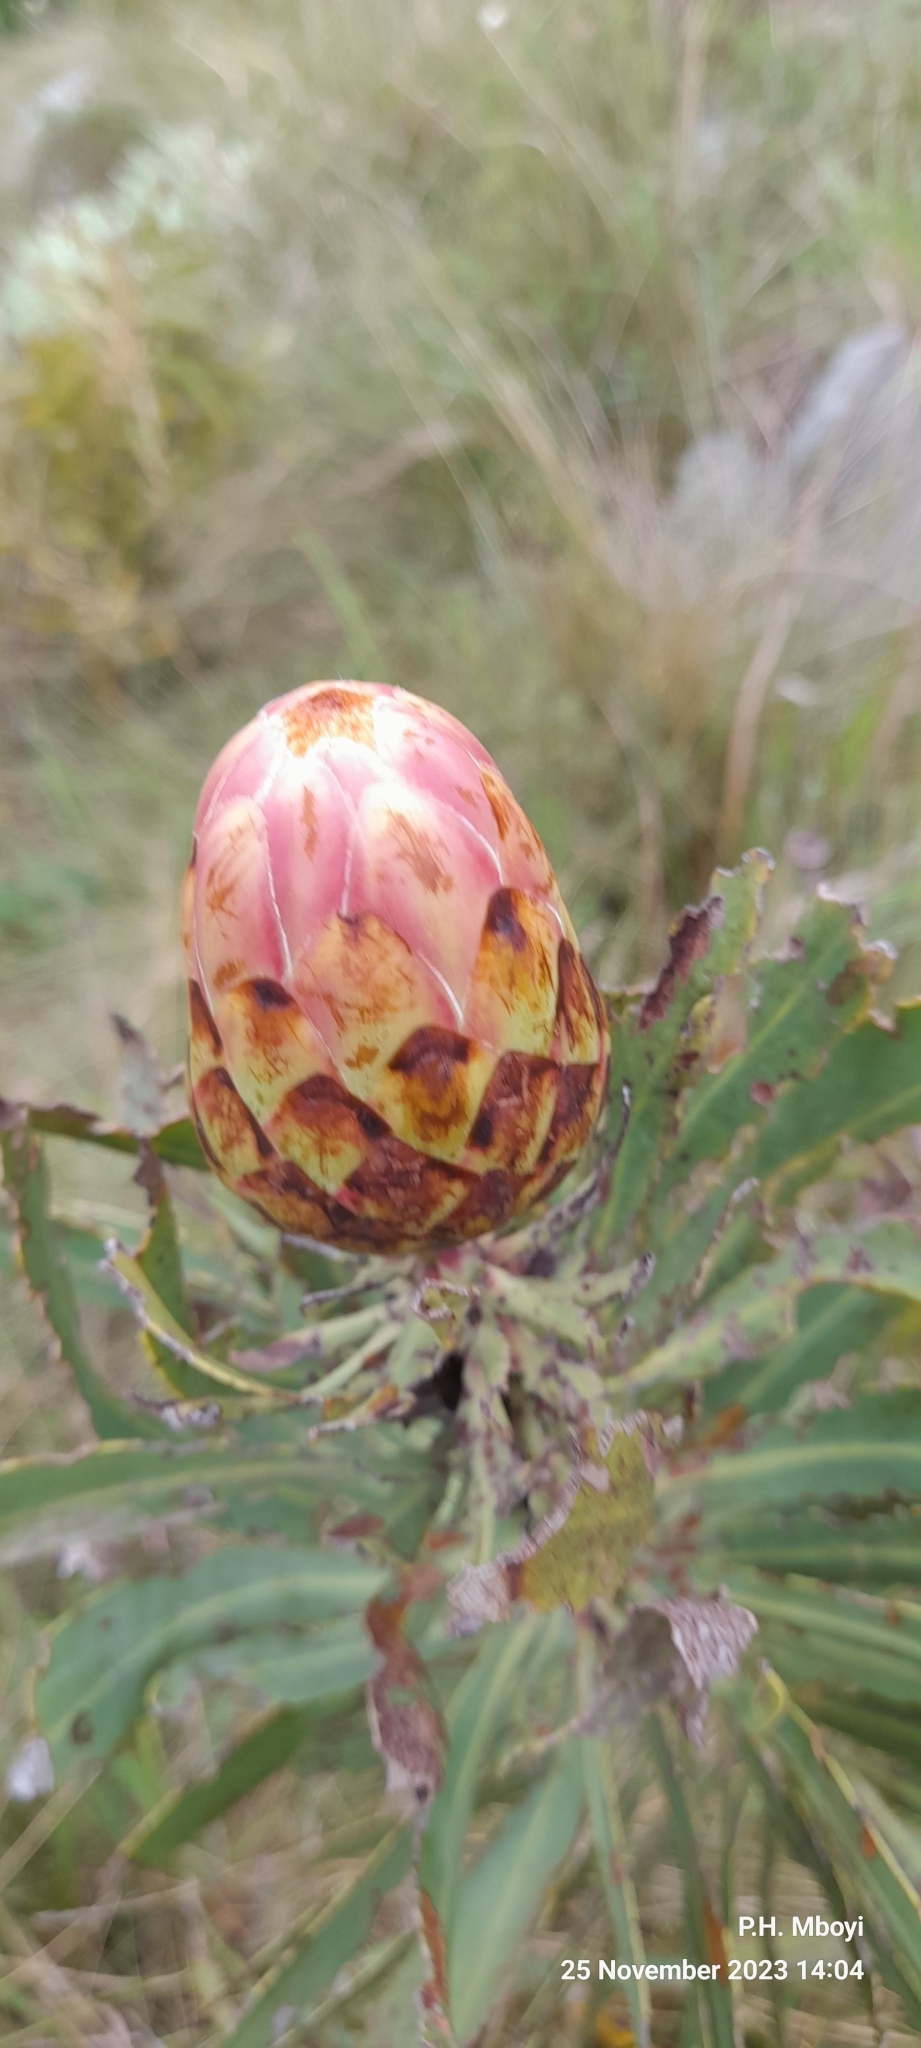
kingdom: Plantae
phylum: Tracheophyta
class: Magnoliopsida
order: Proteales
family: Proteaceae
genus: Protea
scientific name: Protea caffra
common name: Common sugarbush
